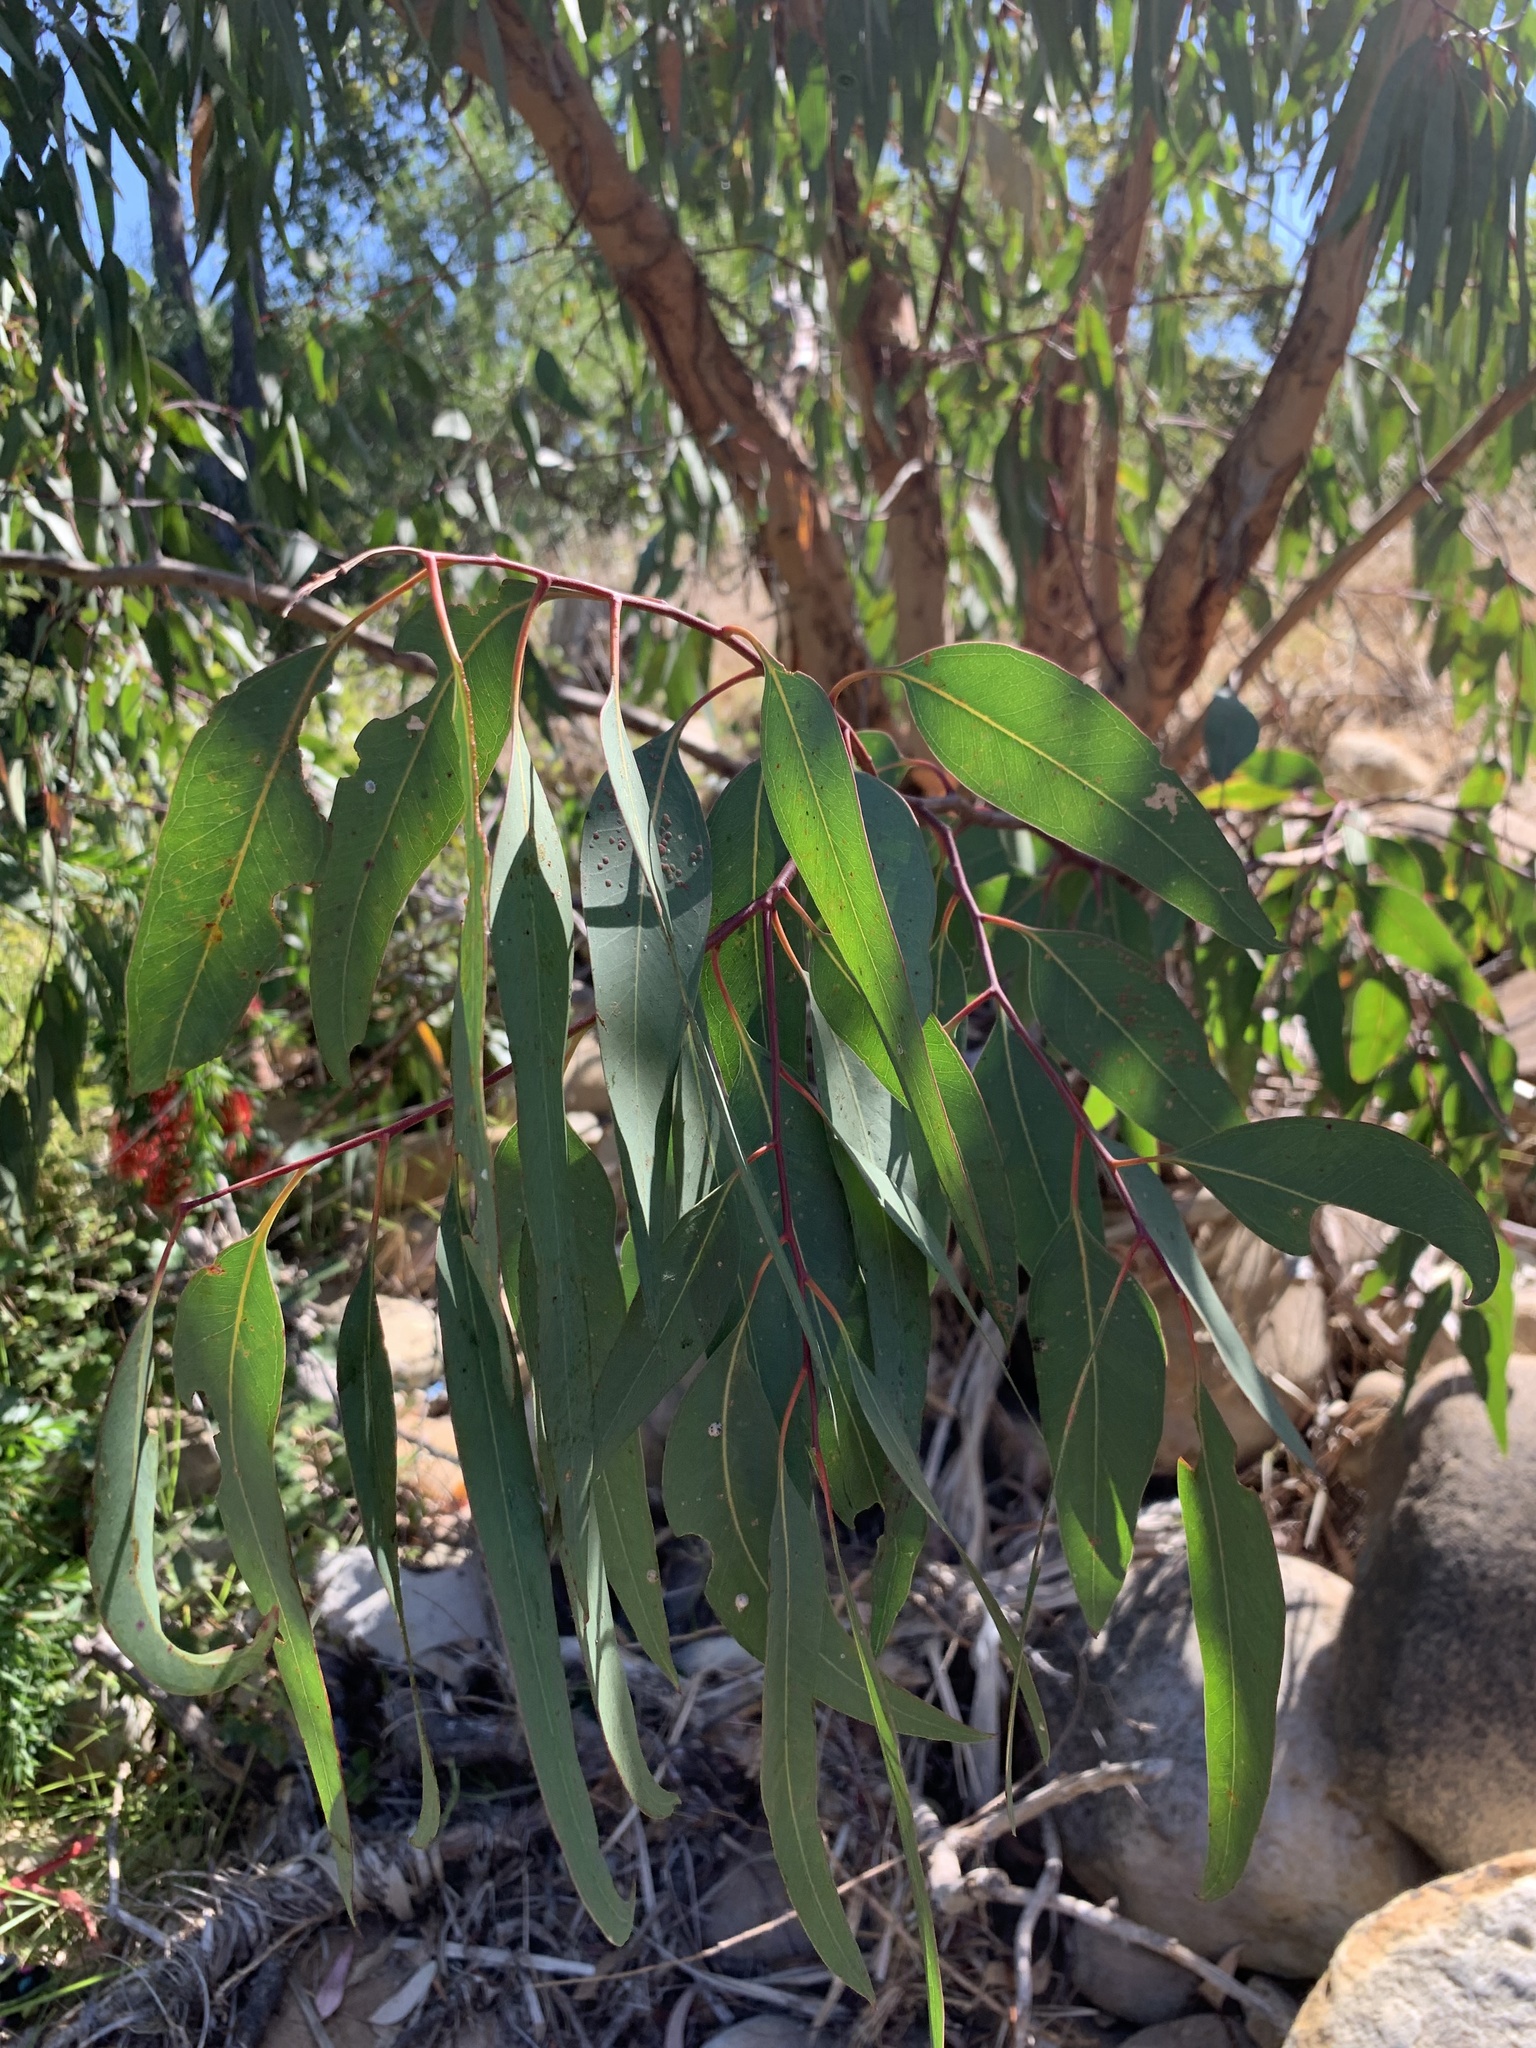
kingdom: Plantae
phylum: Tracheophyta
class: Magnoliopsida
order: Myrtales
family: Myrtaceae
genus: Eucalyptus
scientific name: Eucalyptus camaldulensis
